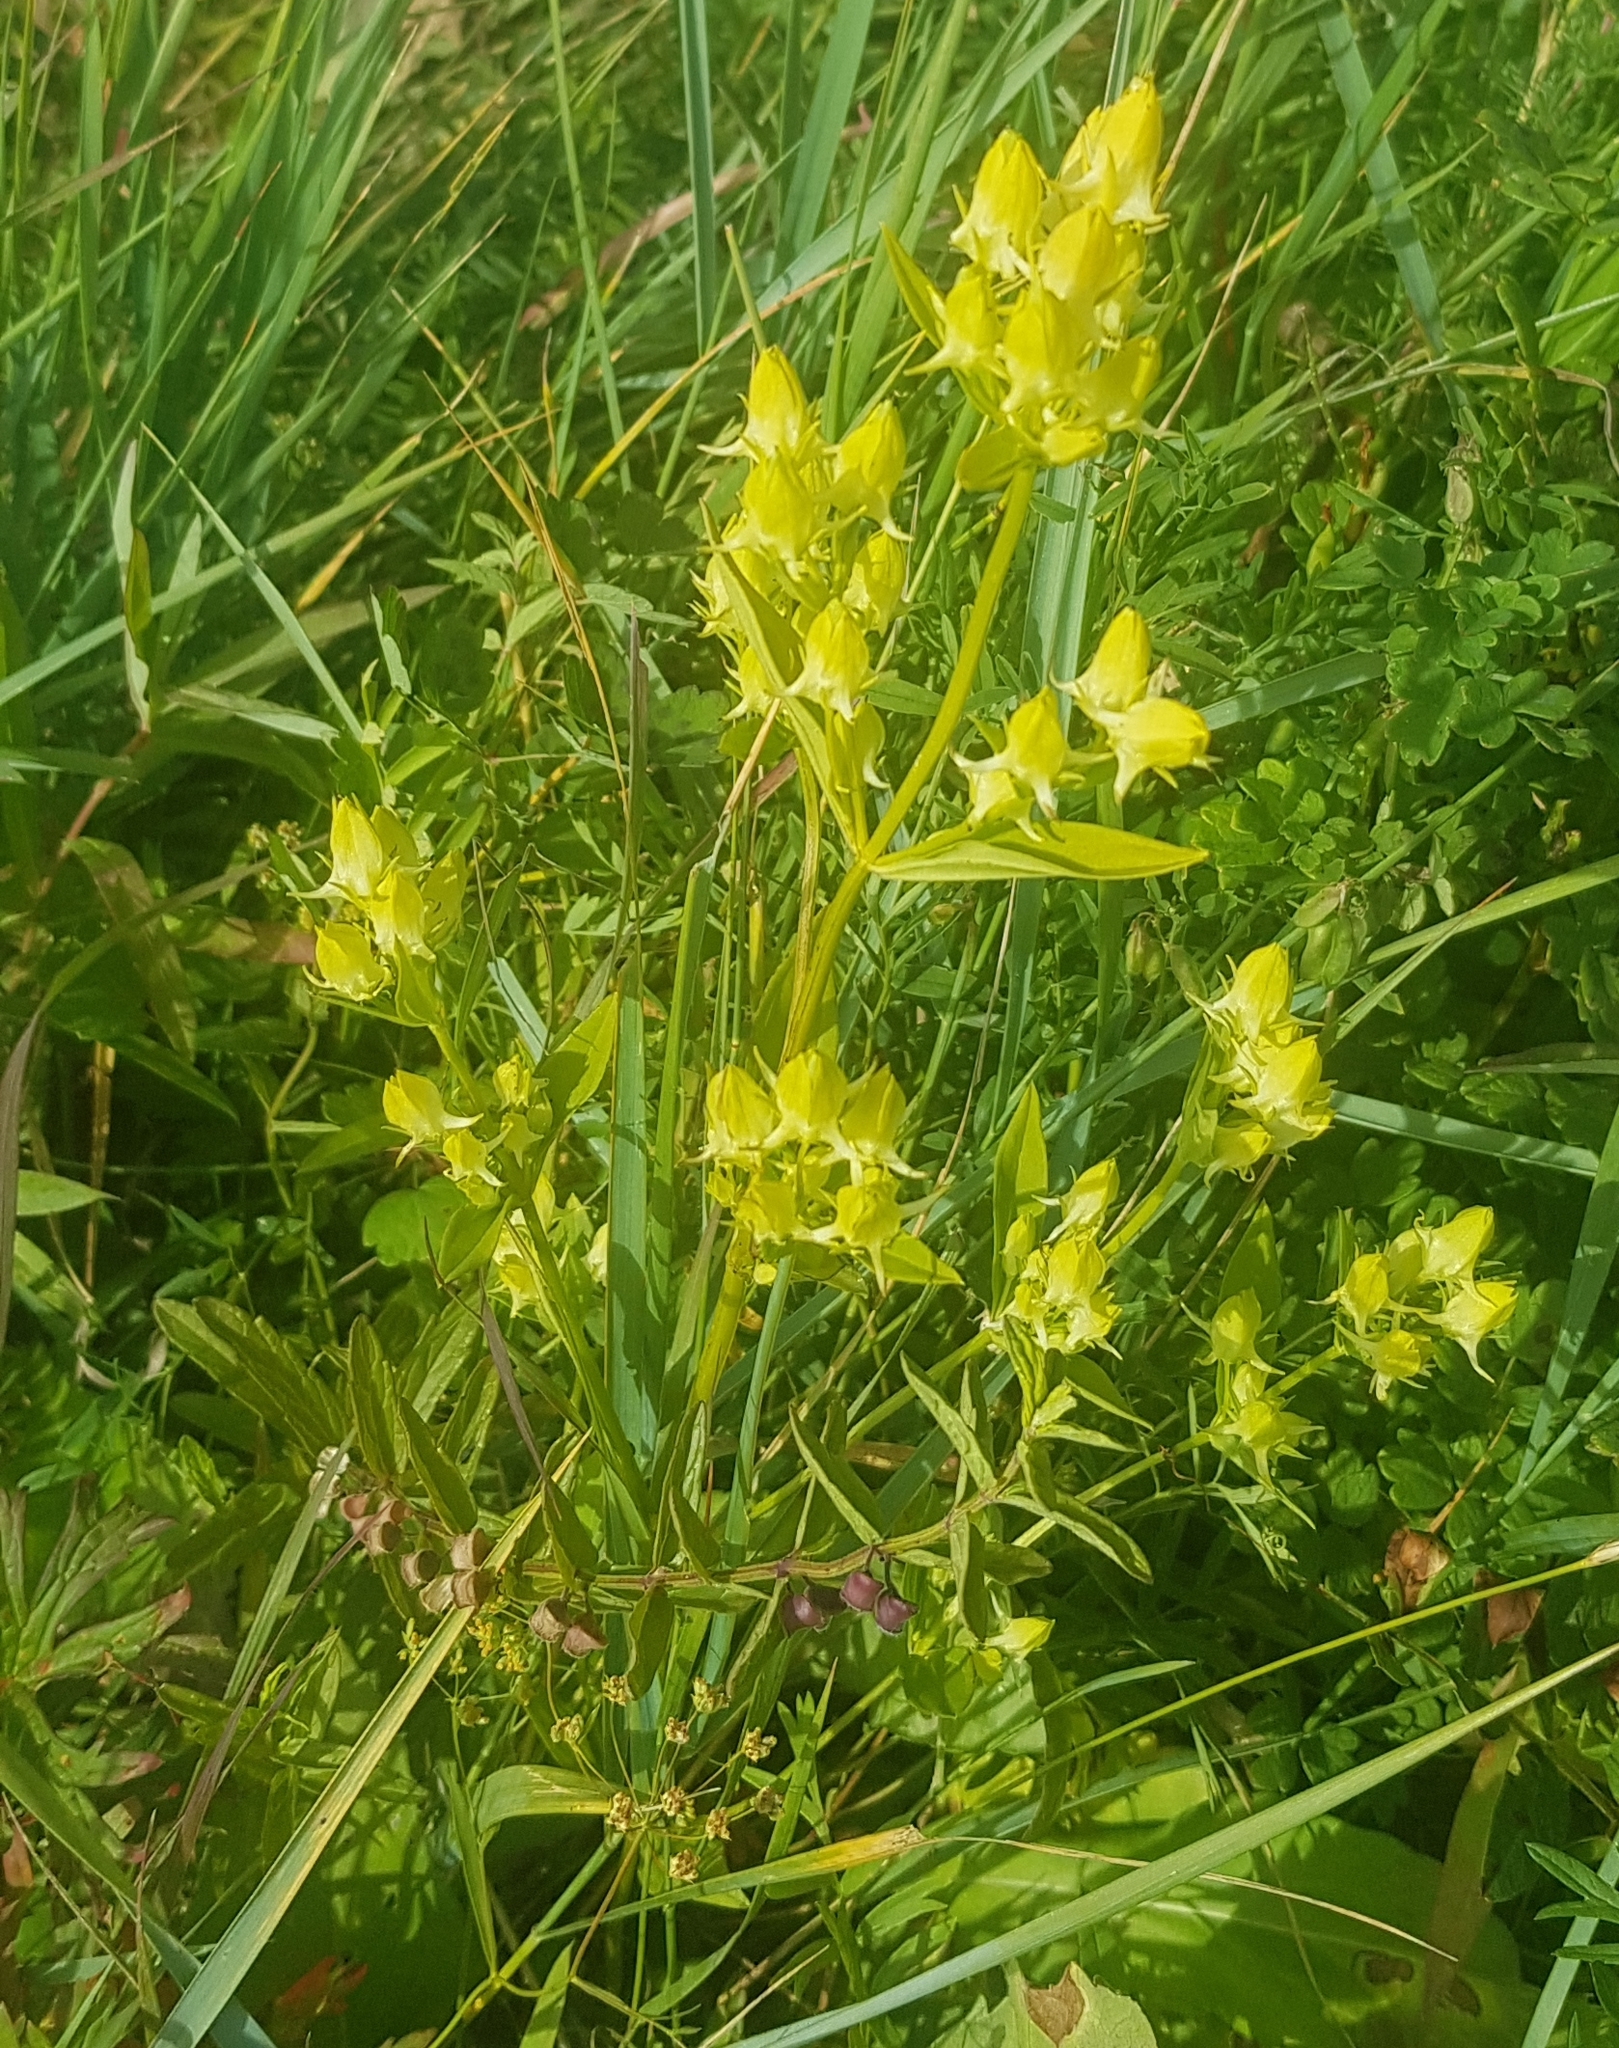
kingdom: Plantae
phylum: Tracheophyta
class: Magnoliopsida
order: Gentianales
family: Gentianaceae
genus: Halenia
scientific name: Halenia corniculata
